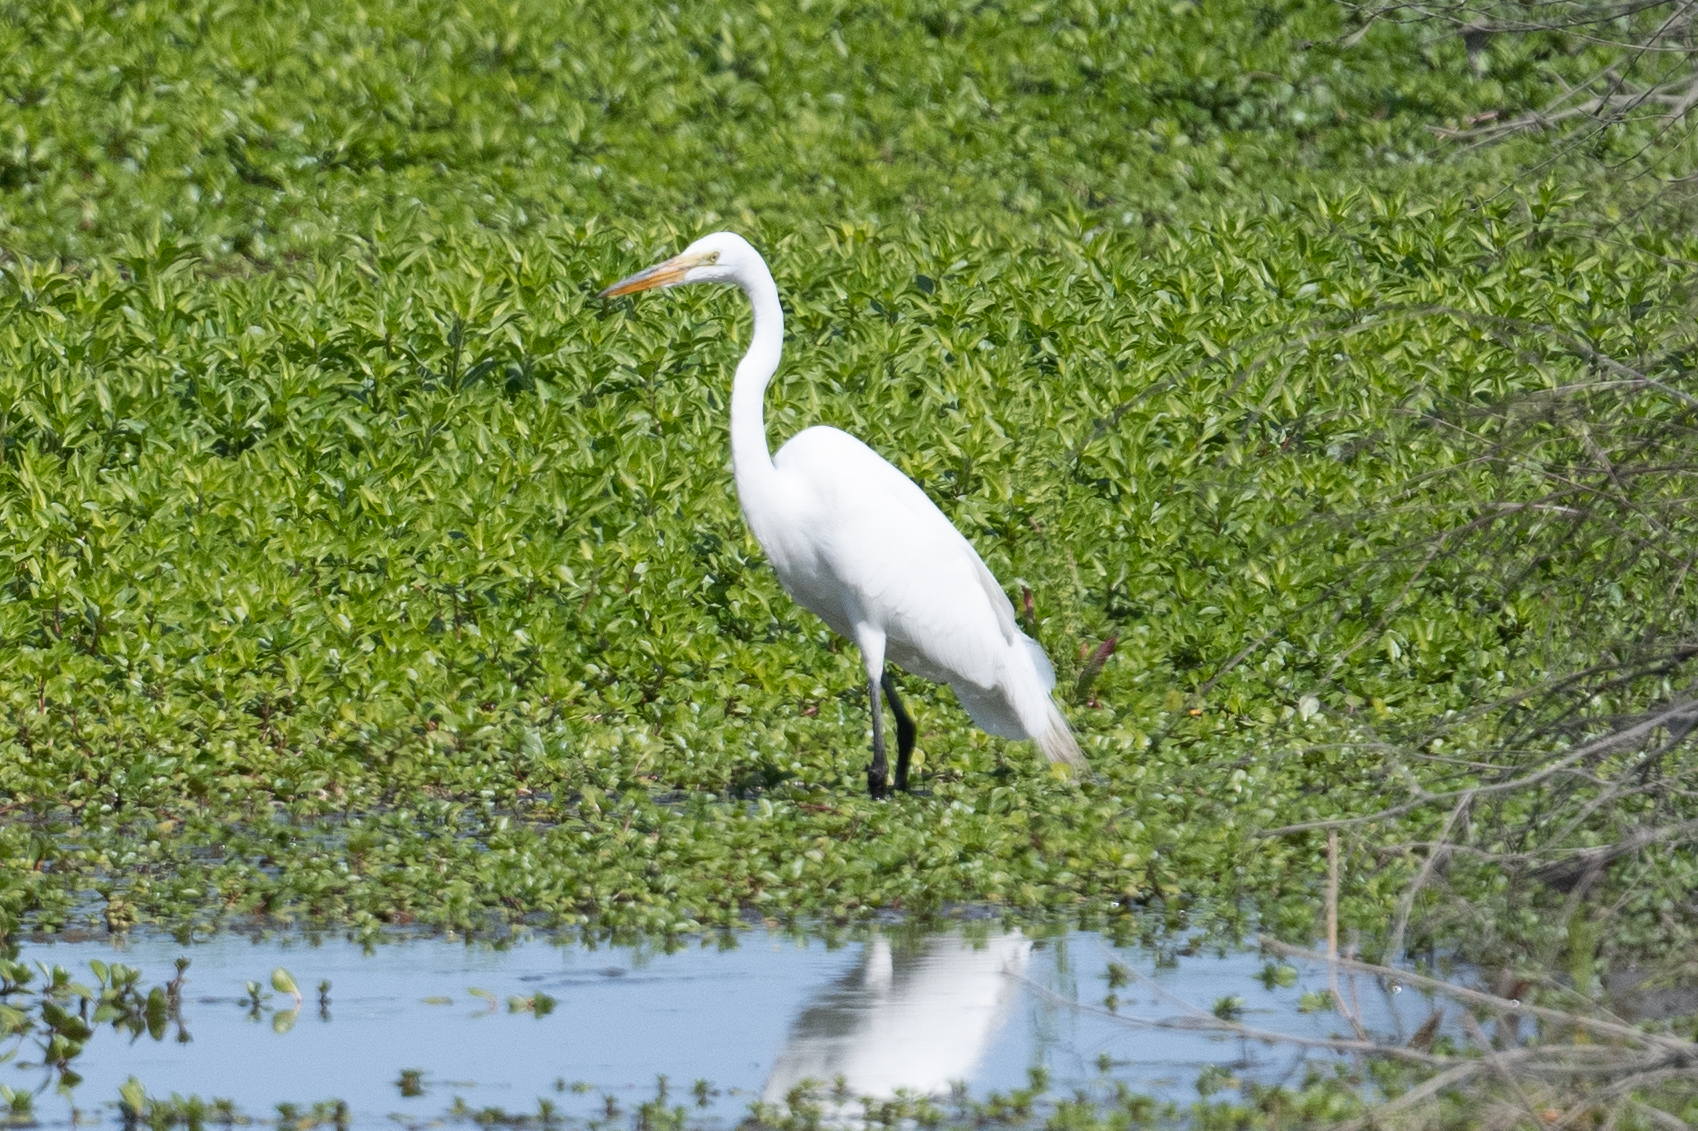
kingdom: Animalia
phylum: Chordata
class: Aves
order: Pelecaniformes
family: Ardeidae
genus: Ardea
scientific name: Ardea alba
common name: Great egret
